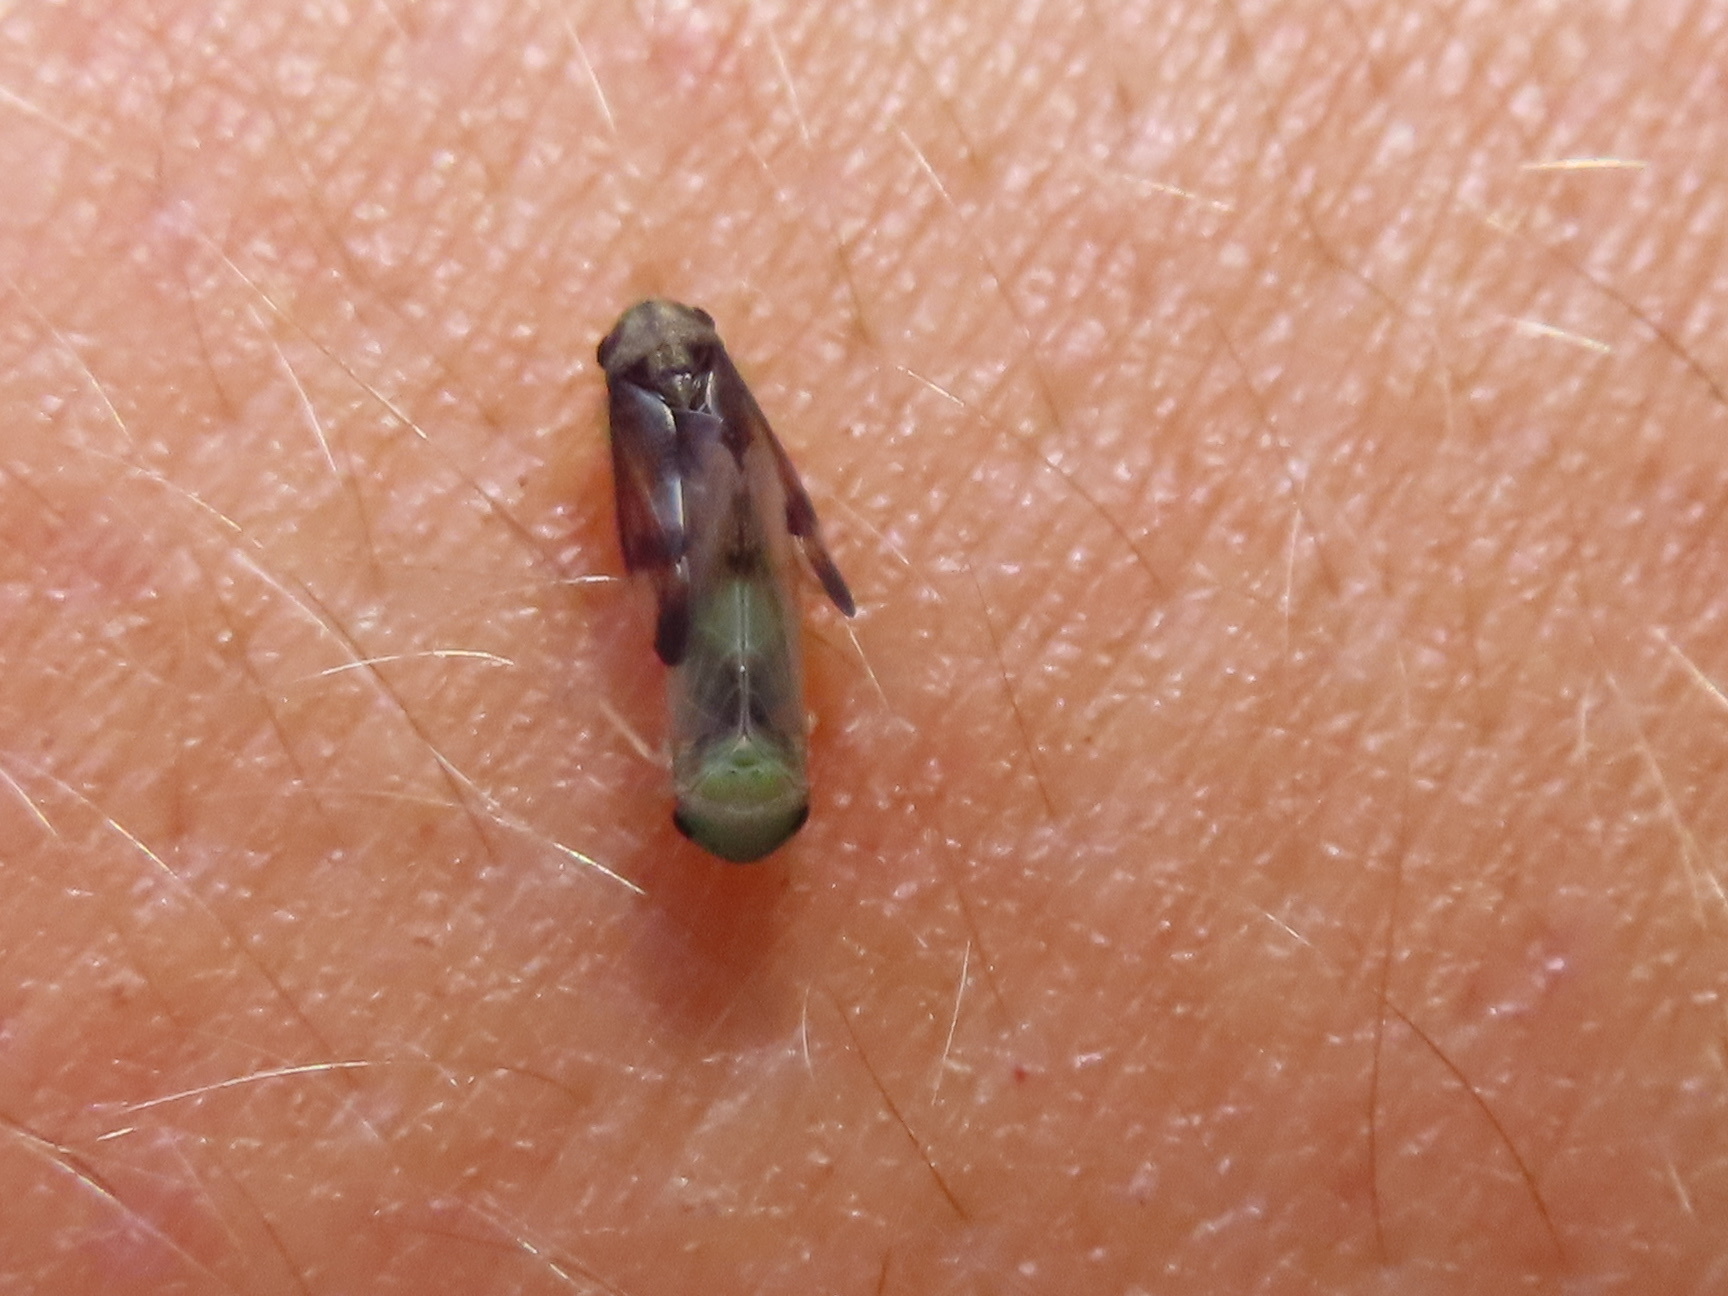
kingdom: Animalia
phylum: Arthropoda
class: Insecta
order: Hemiptera
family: Cicadellidae
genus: Pediopsoides
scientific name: Pediopsoides distinctus
